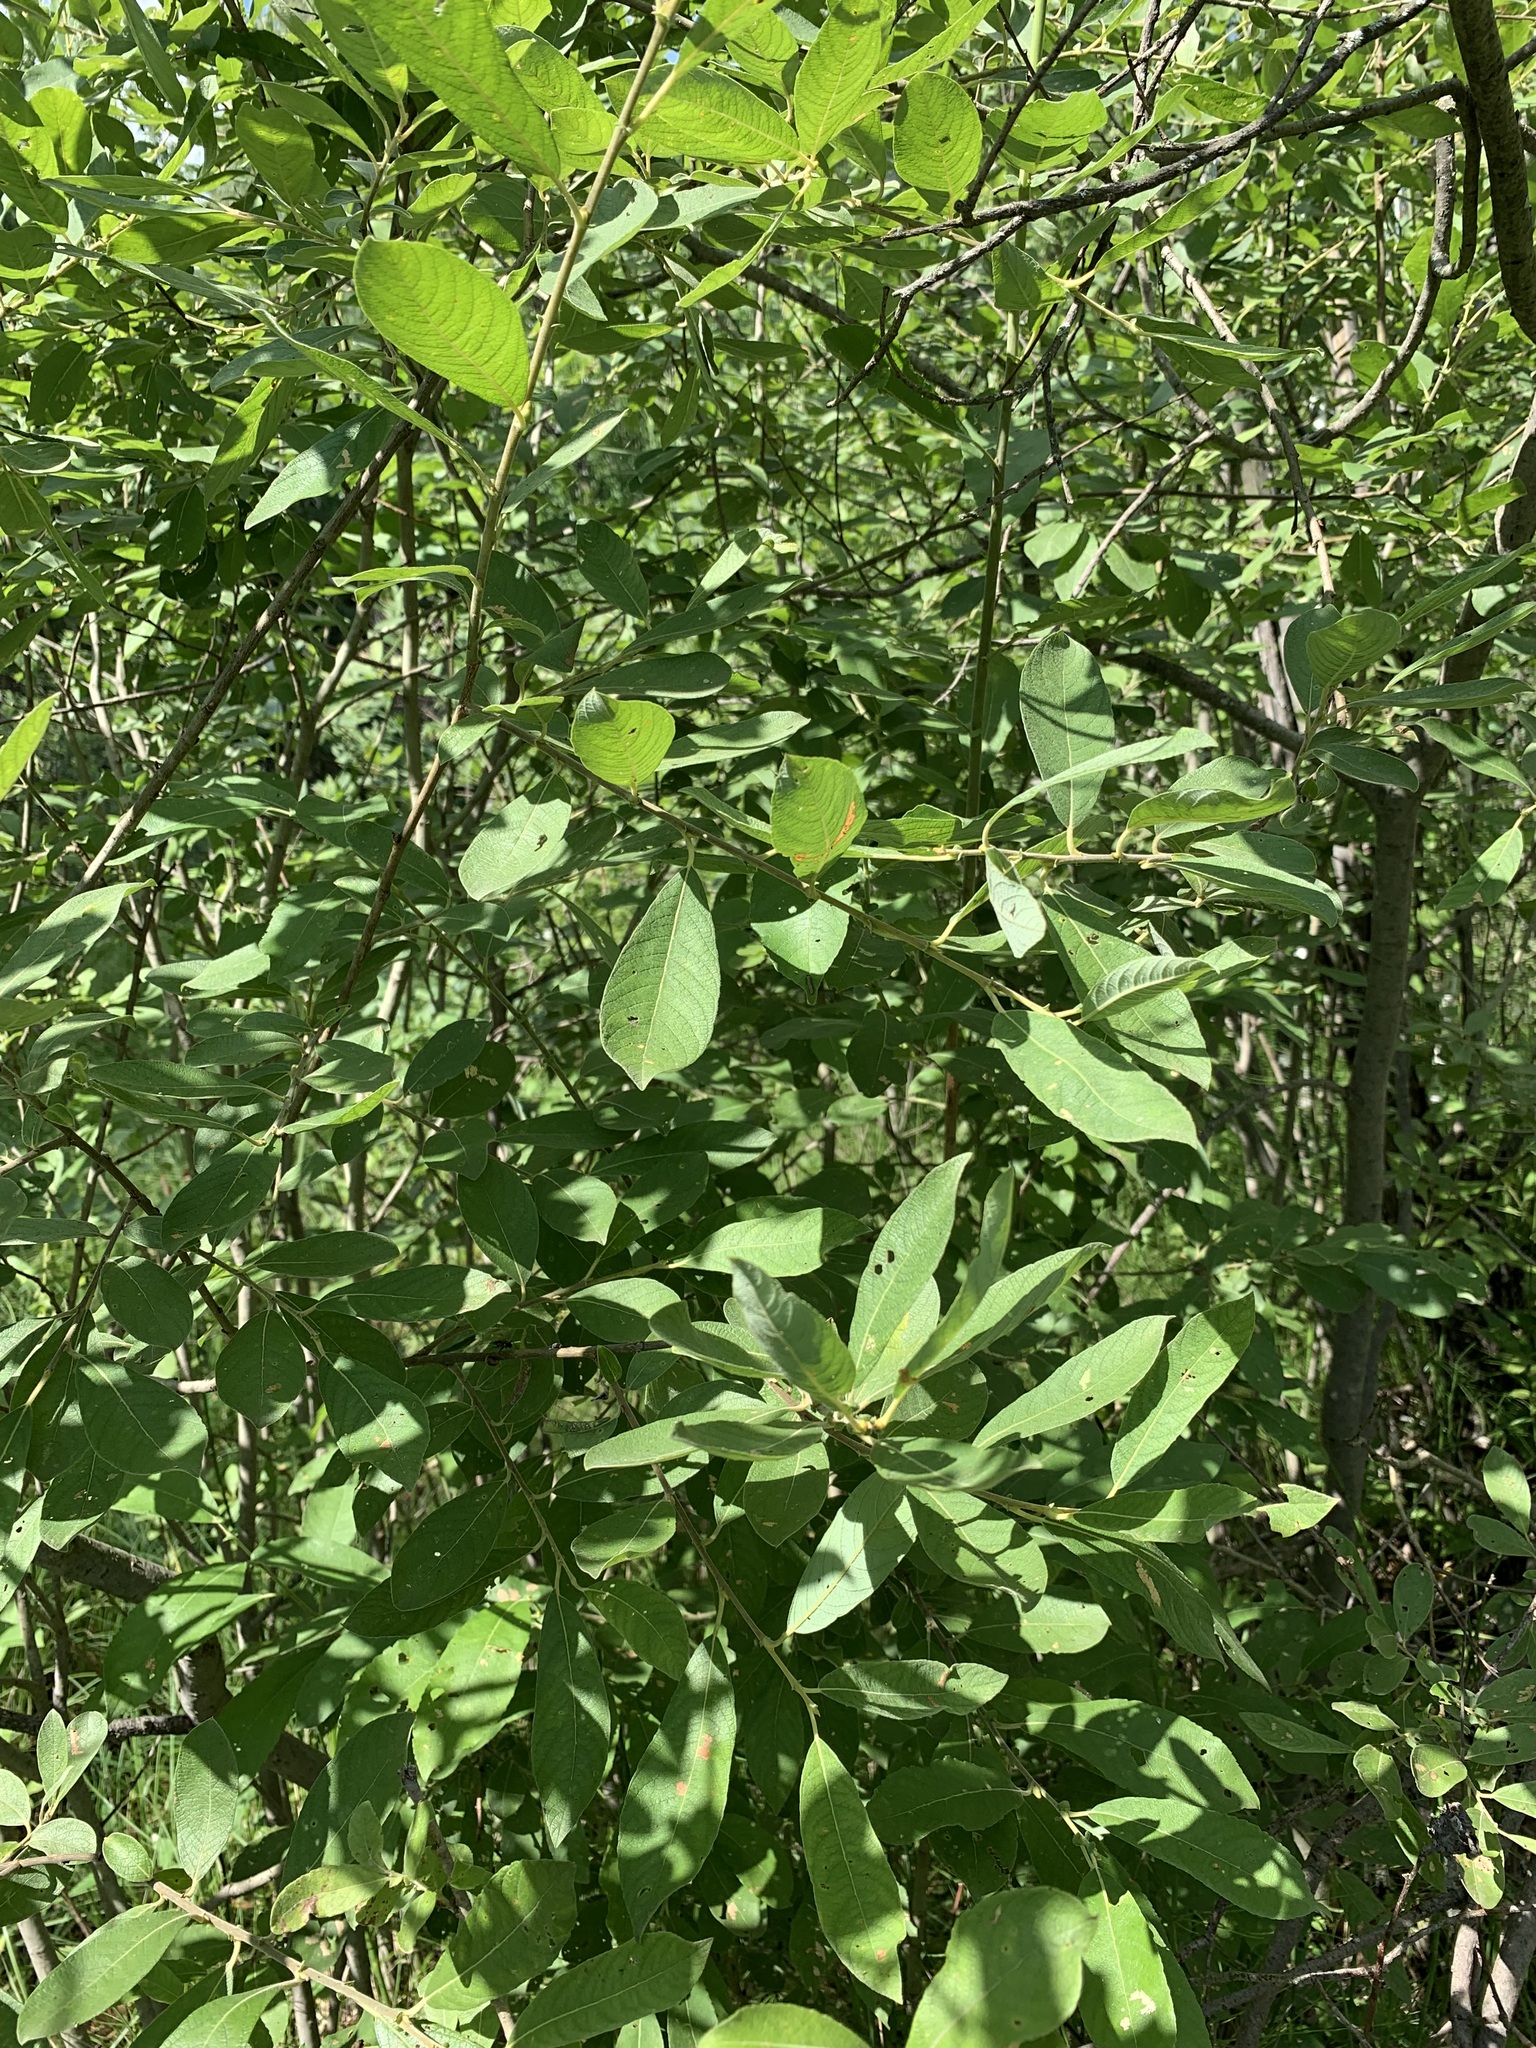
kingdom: Plantae
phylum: Tracheophyta
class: Magnoliopsida
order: Malpighiales
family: Salicaceae
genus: Salix
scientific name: Salix cinerea
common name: Common sallow
